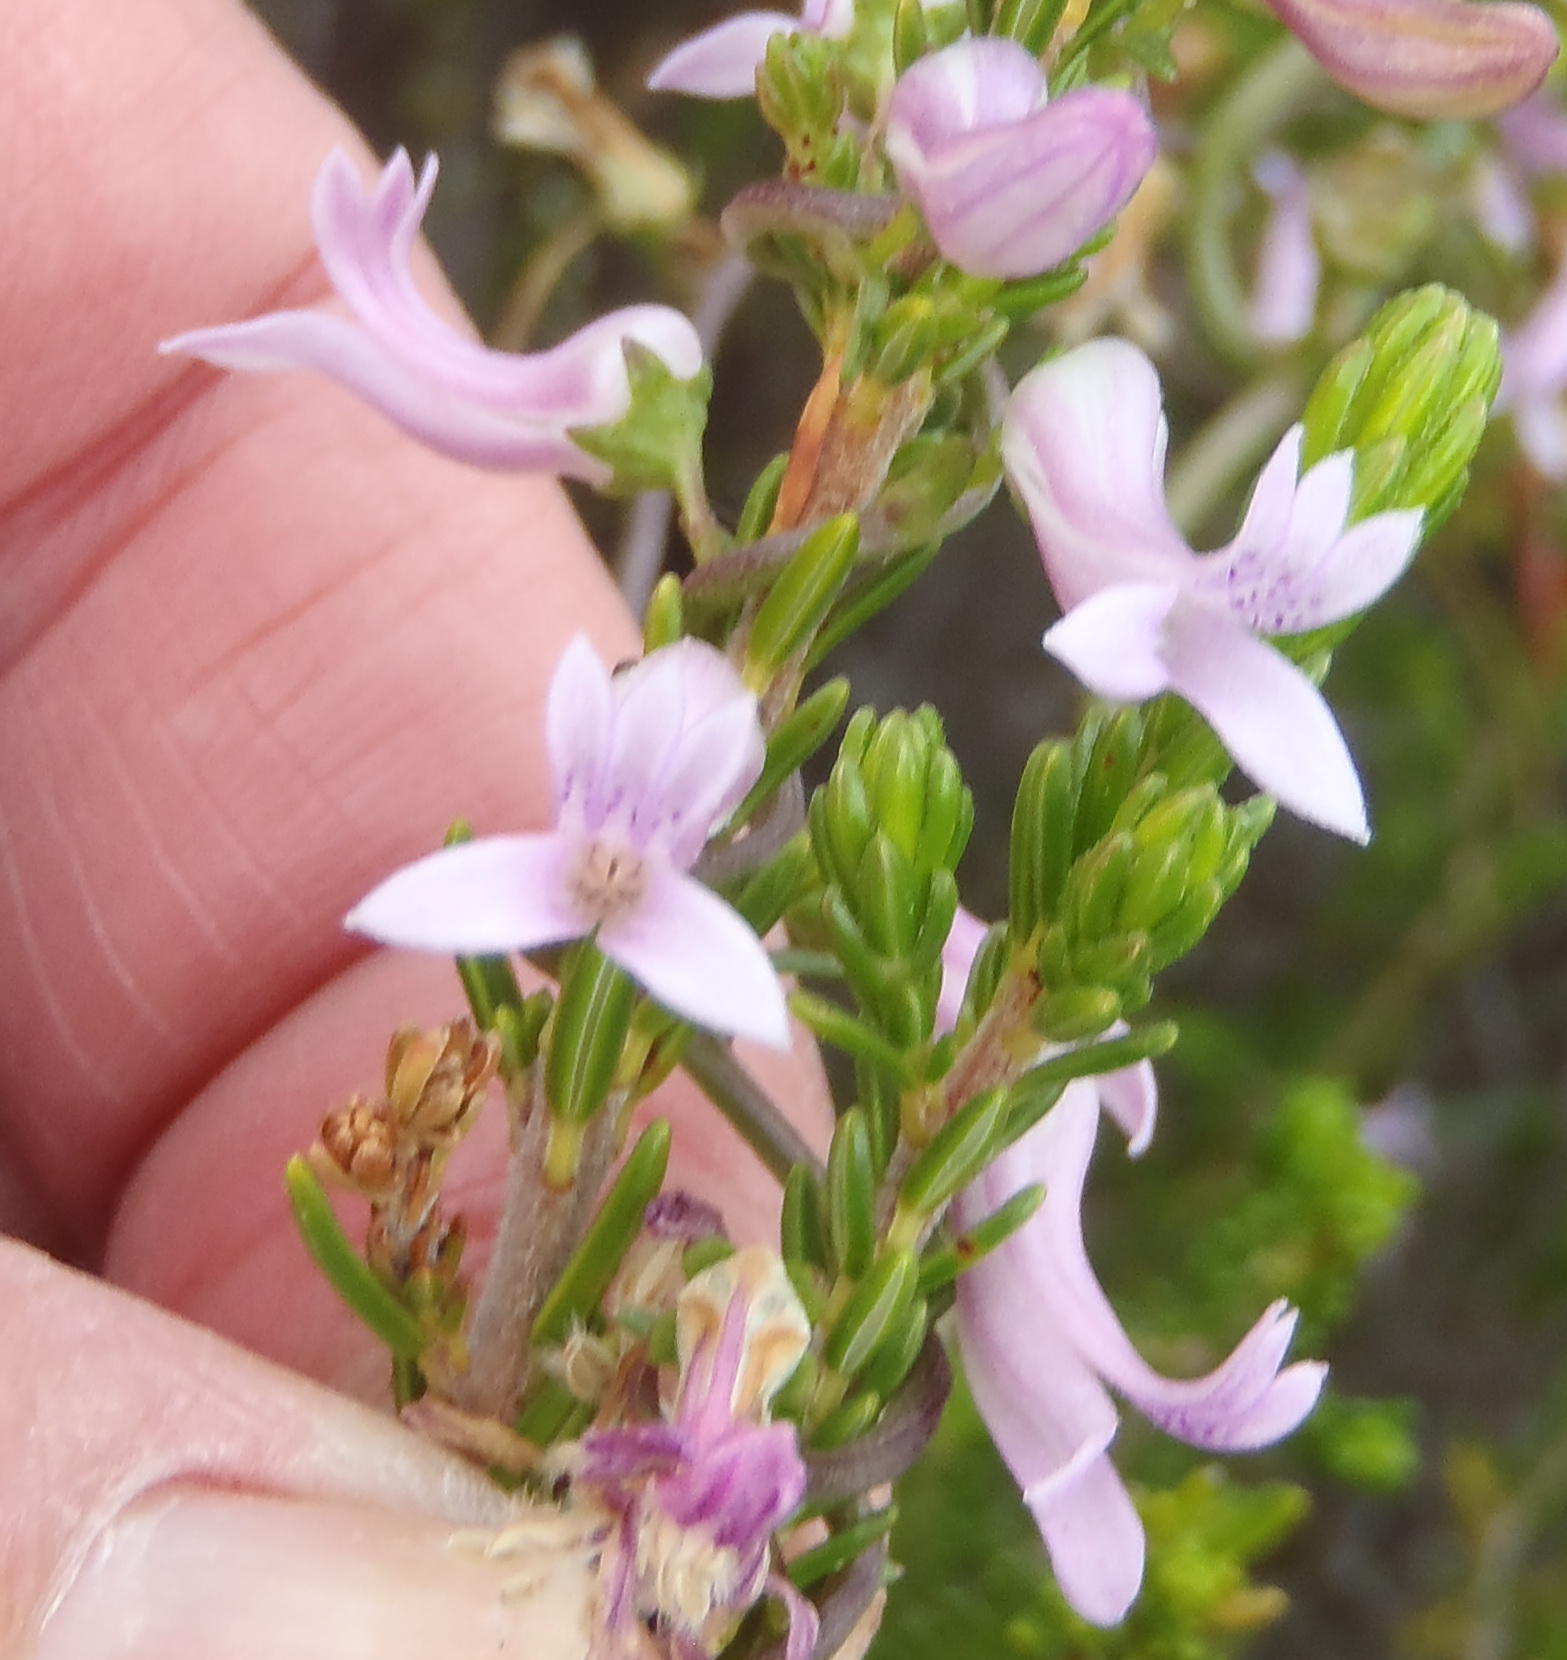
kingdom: Plantae
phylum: Tracheophyta
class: Magnoliopsida
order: Asterales
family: Campanulaceae
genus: Cyphia
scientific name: Cyphia digitata
